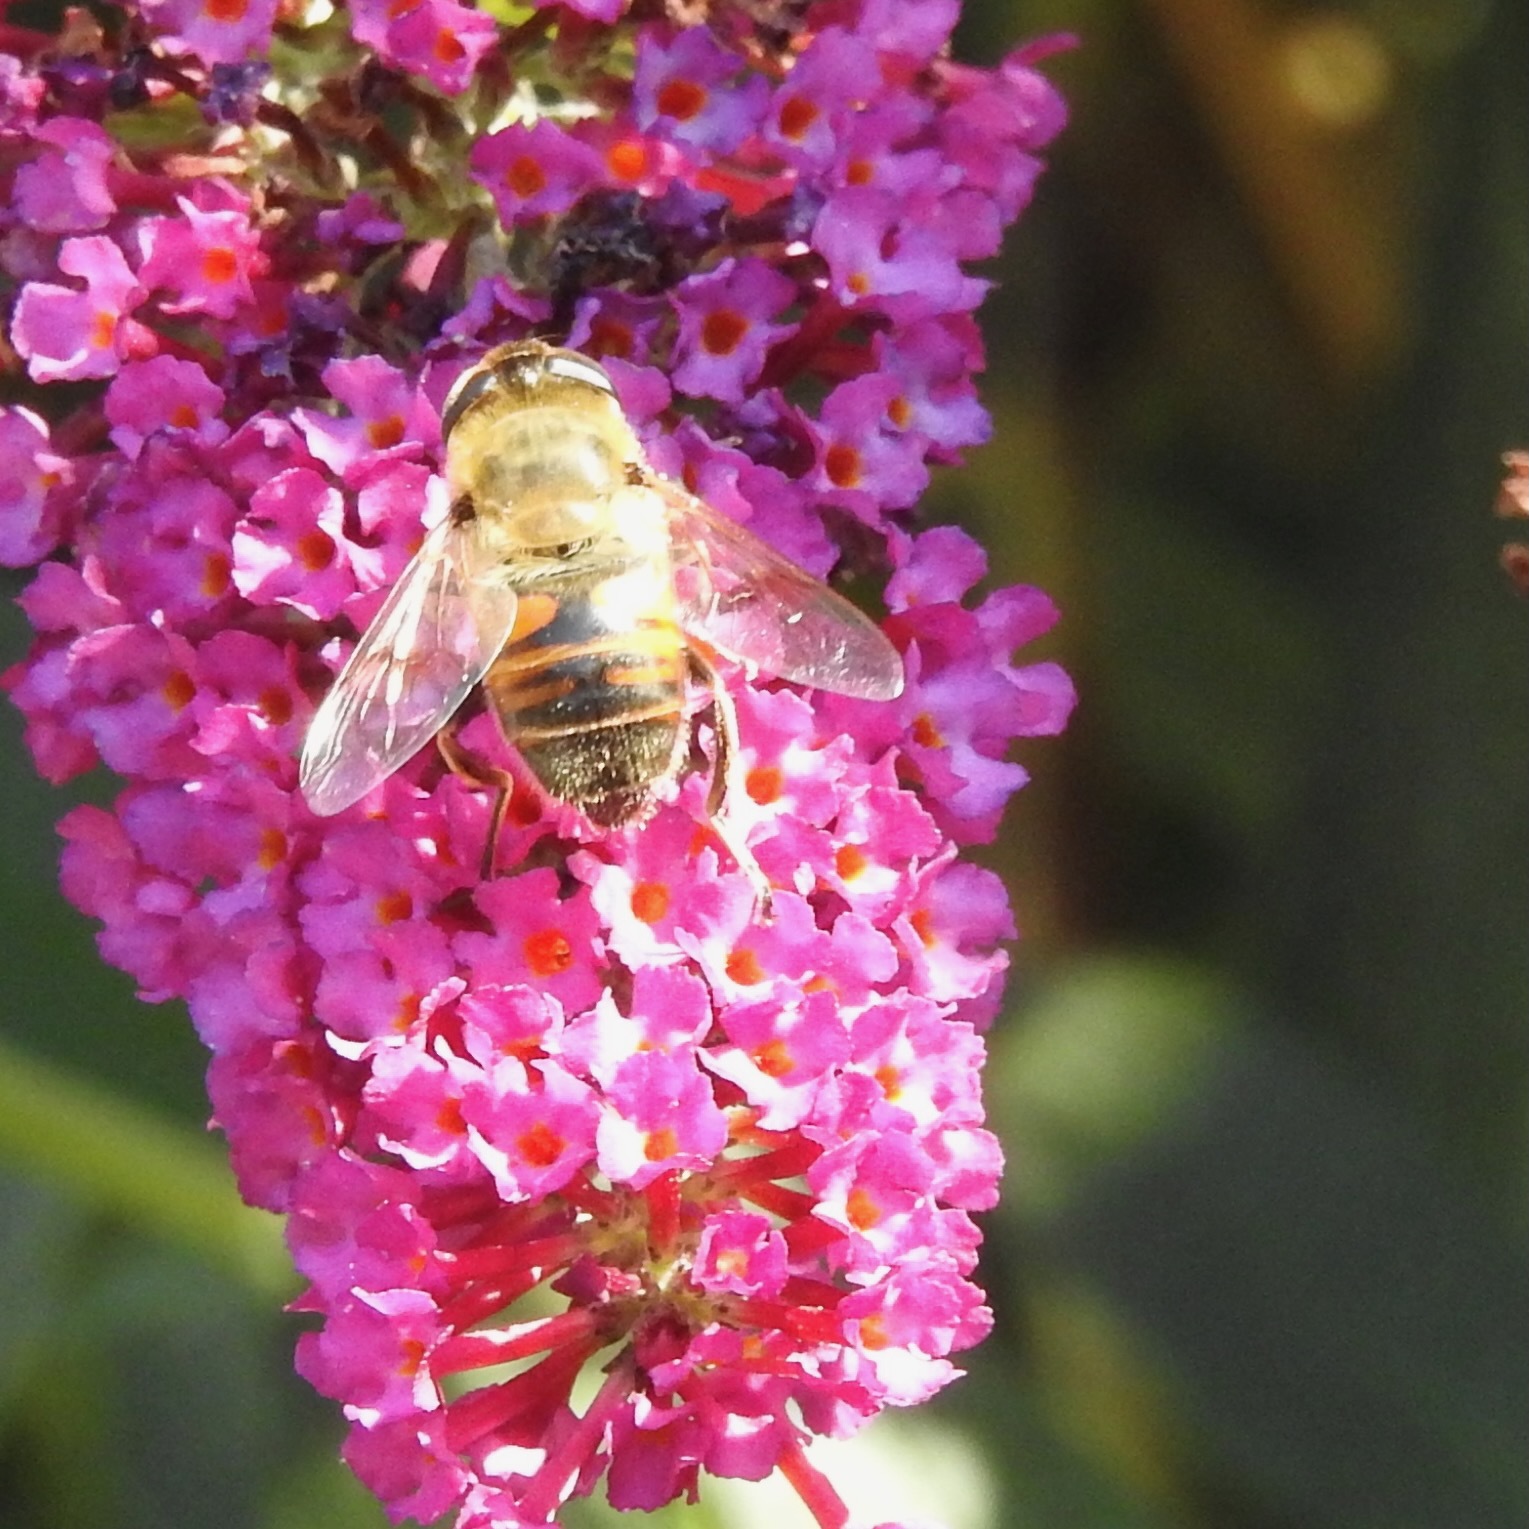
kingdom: Animalia
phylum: Arthropoda
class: Insecta
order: Diptera
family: Syrphidae
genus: Eristalis
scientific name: Eristalis tenax
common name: Drone fly
